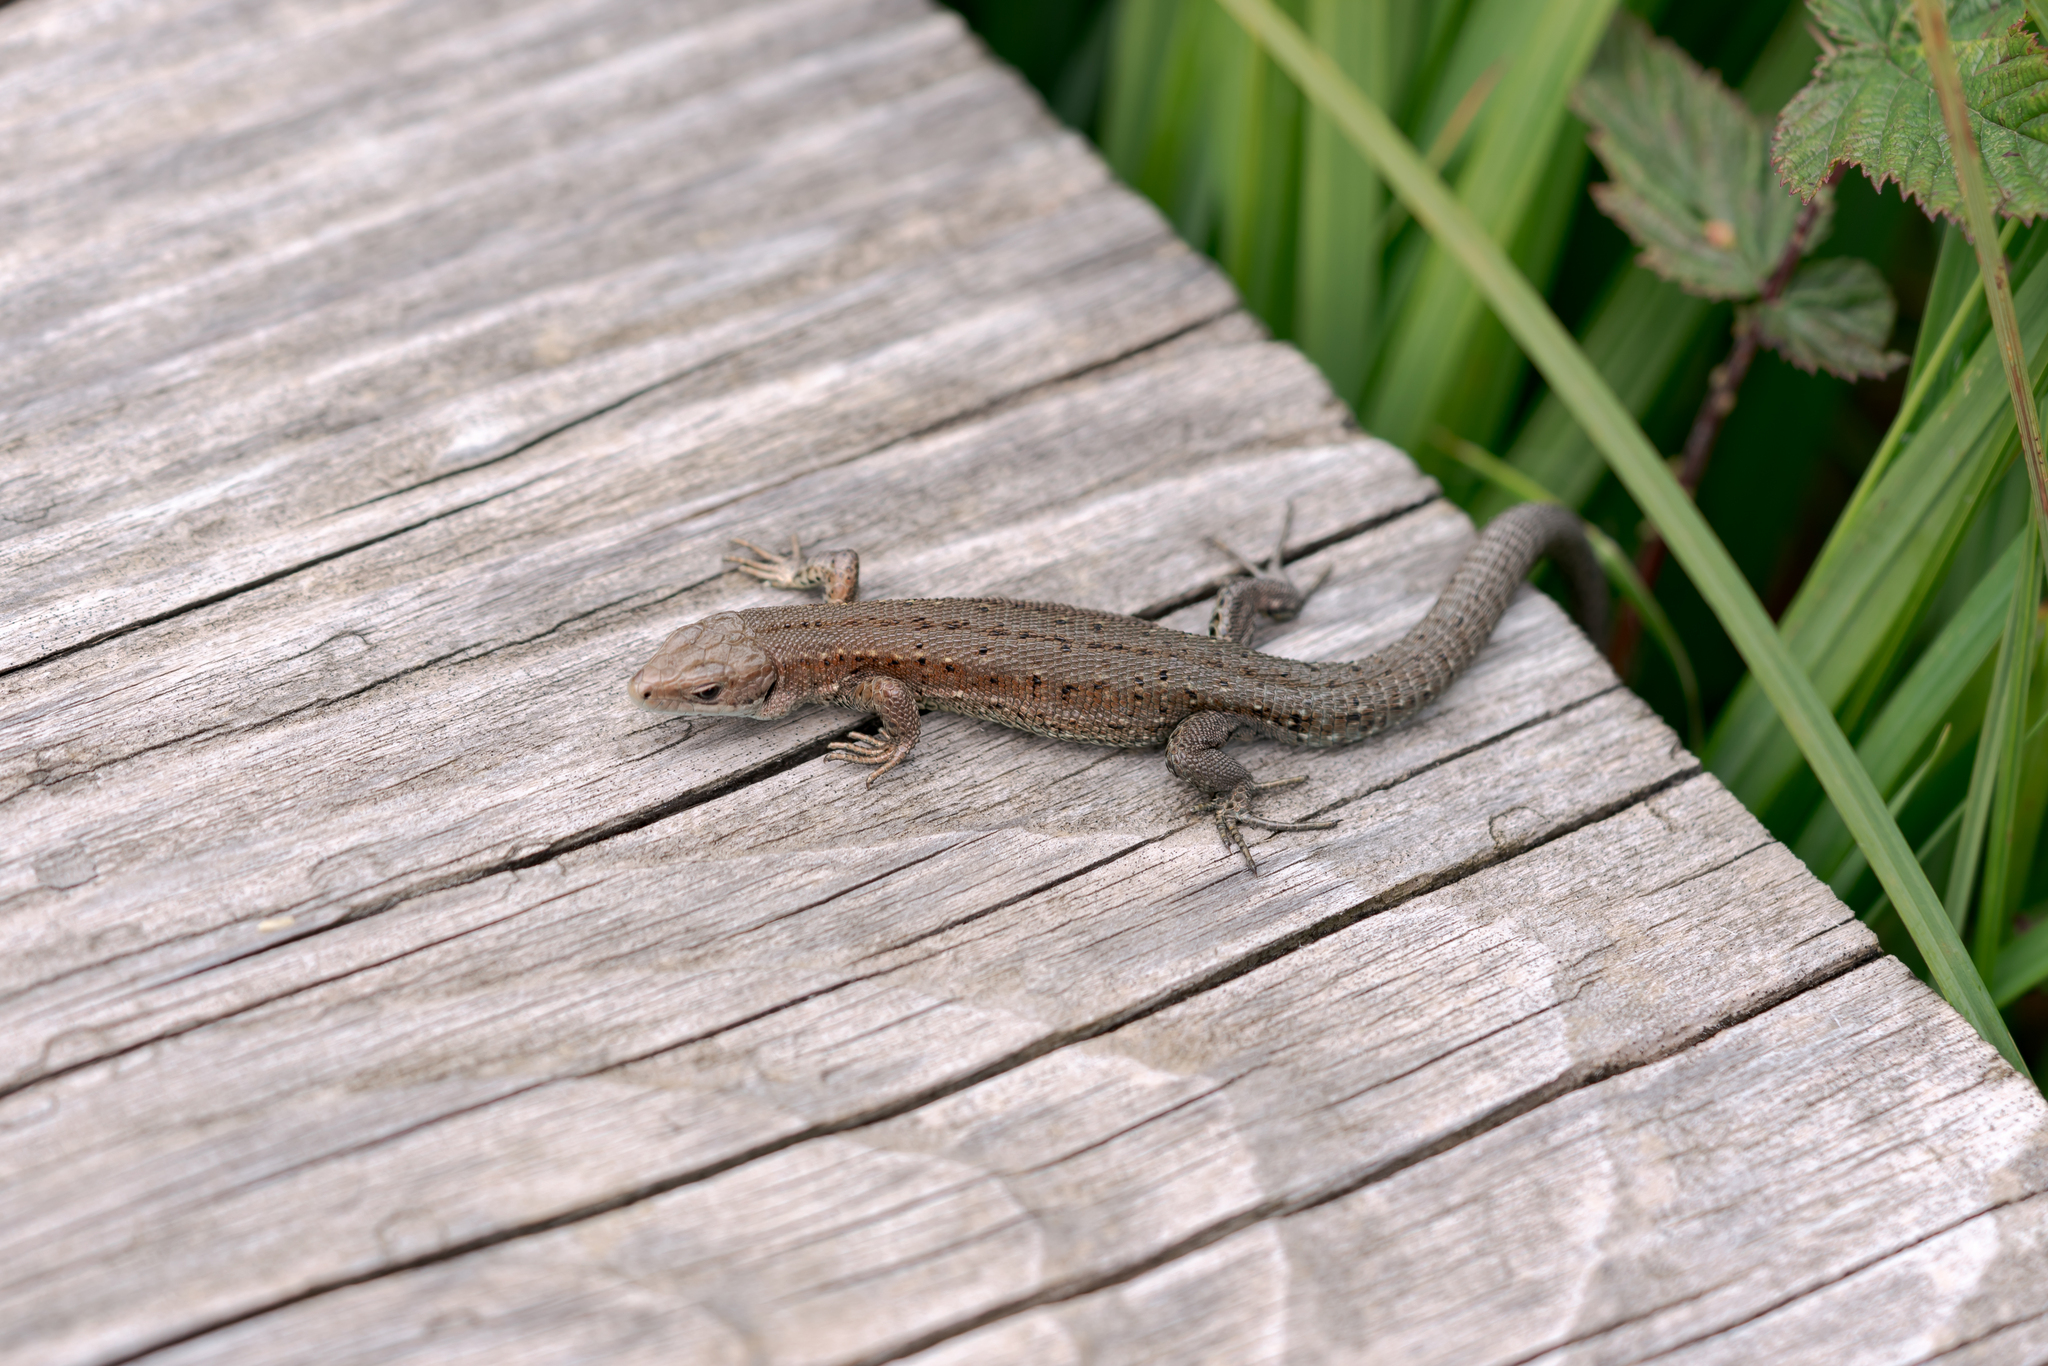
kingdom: Animalia
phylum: Chordata
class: Squamata
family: Lacertidae
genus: Zootoca
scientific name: Zootoca vivipara
